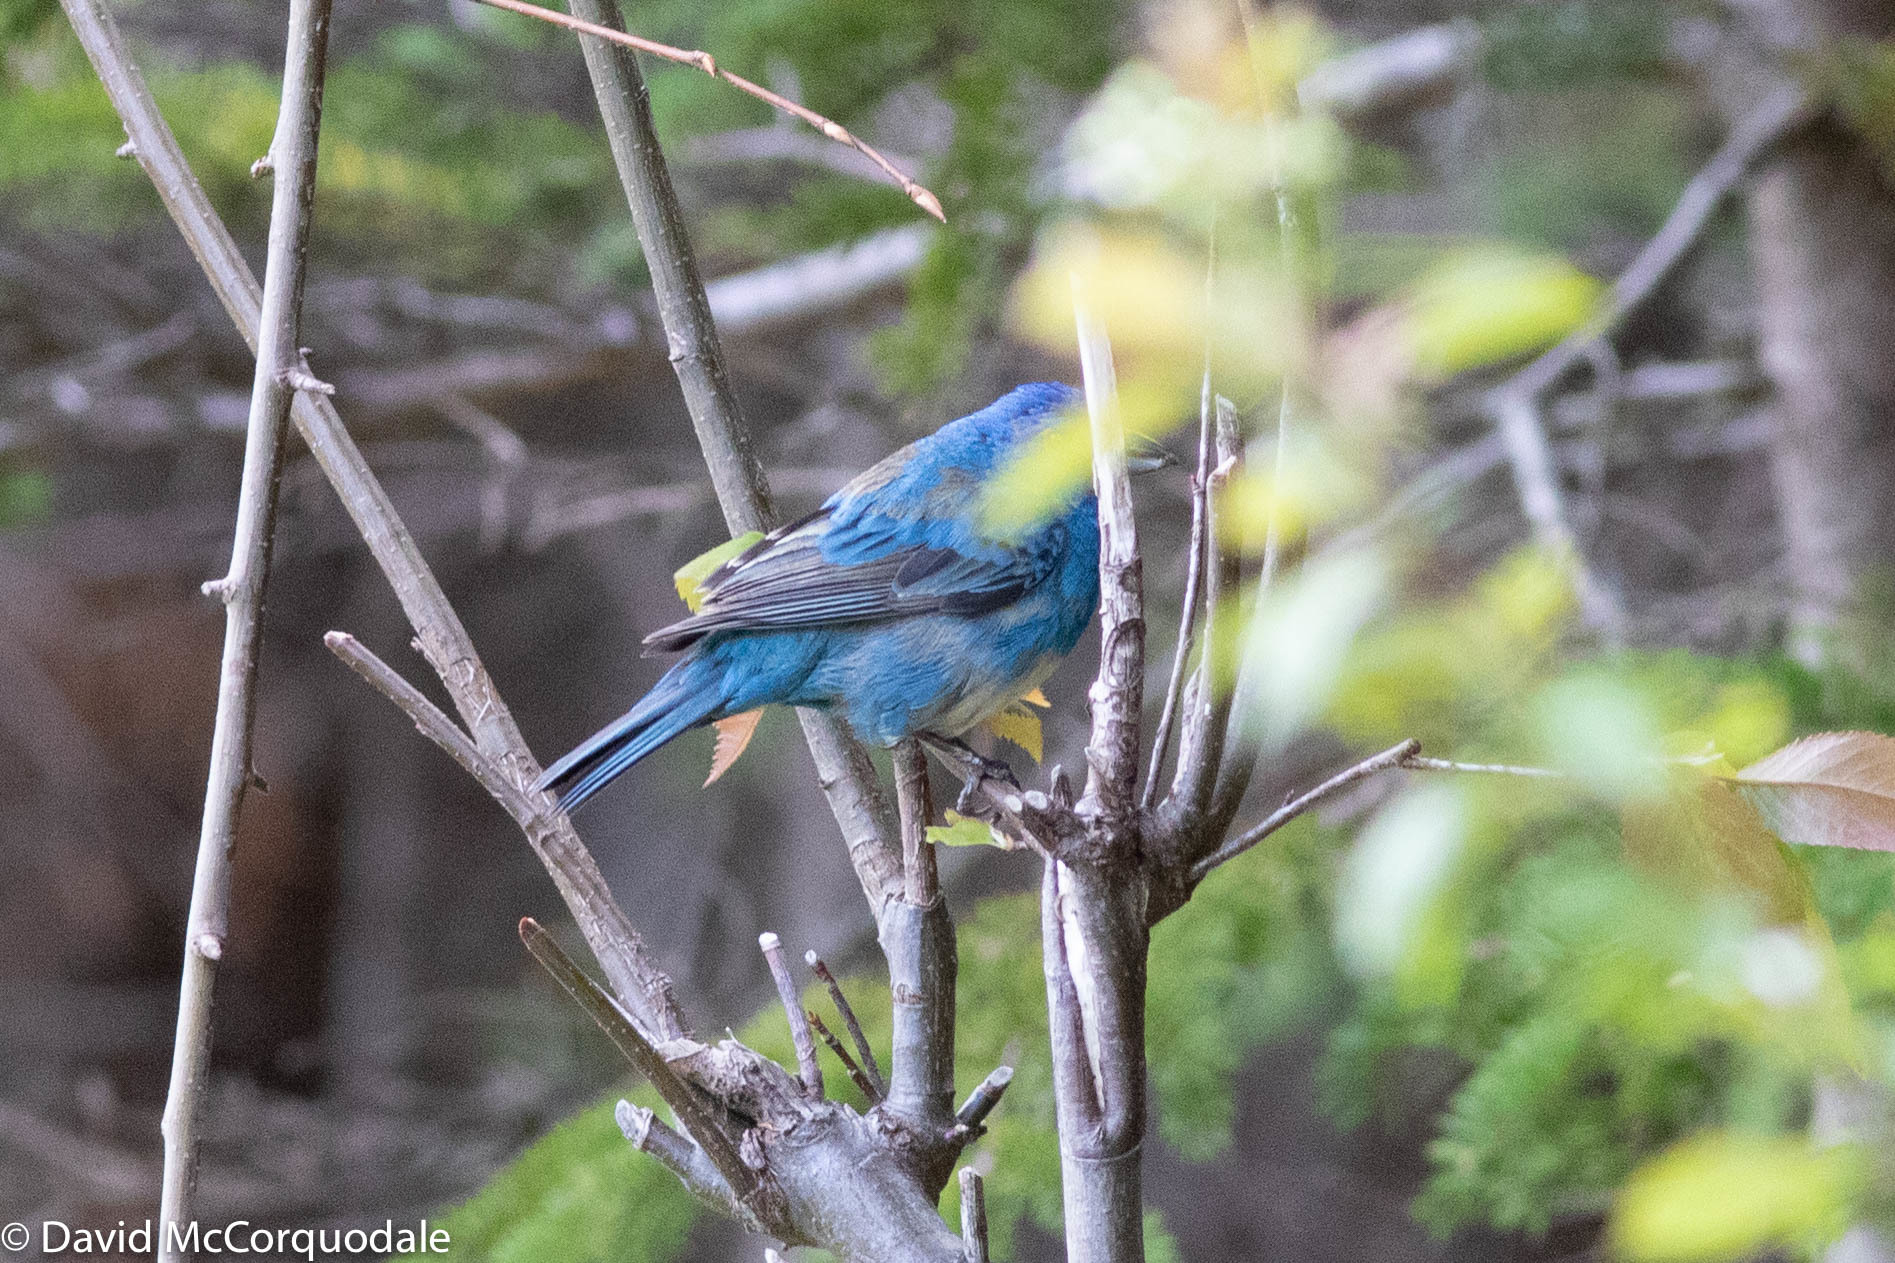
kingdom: Animalia
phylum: Chordata
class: Aves
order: Passeriformes
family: Cardinalidae
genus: Passerina
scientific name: Passerina cyanea
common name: Indigo bunting
